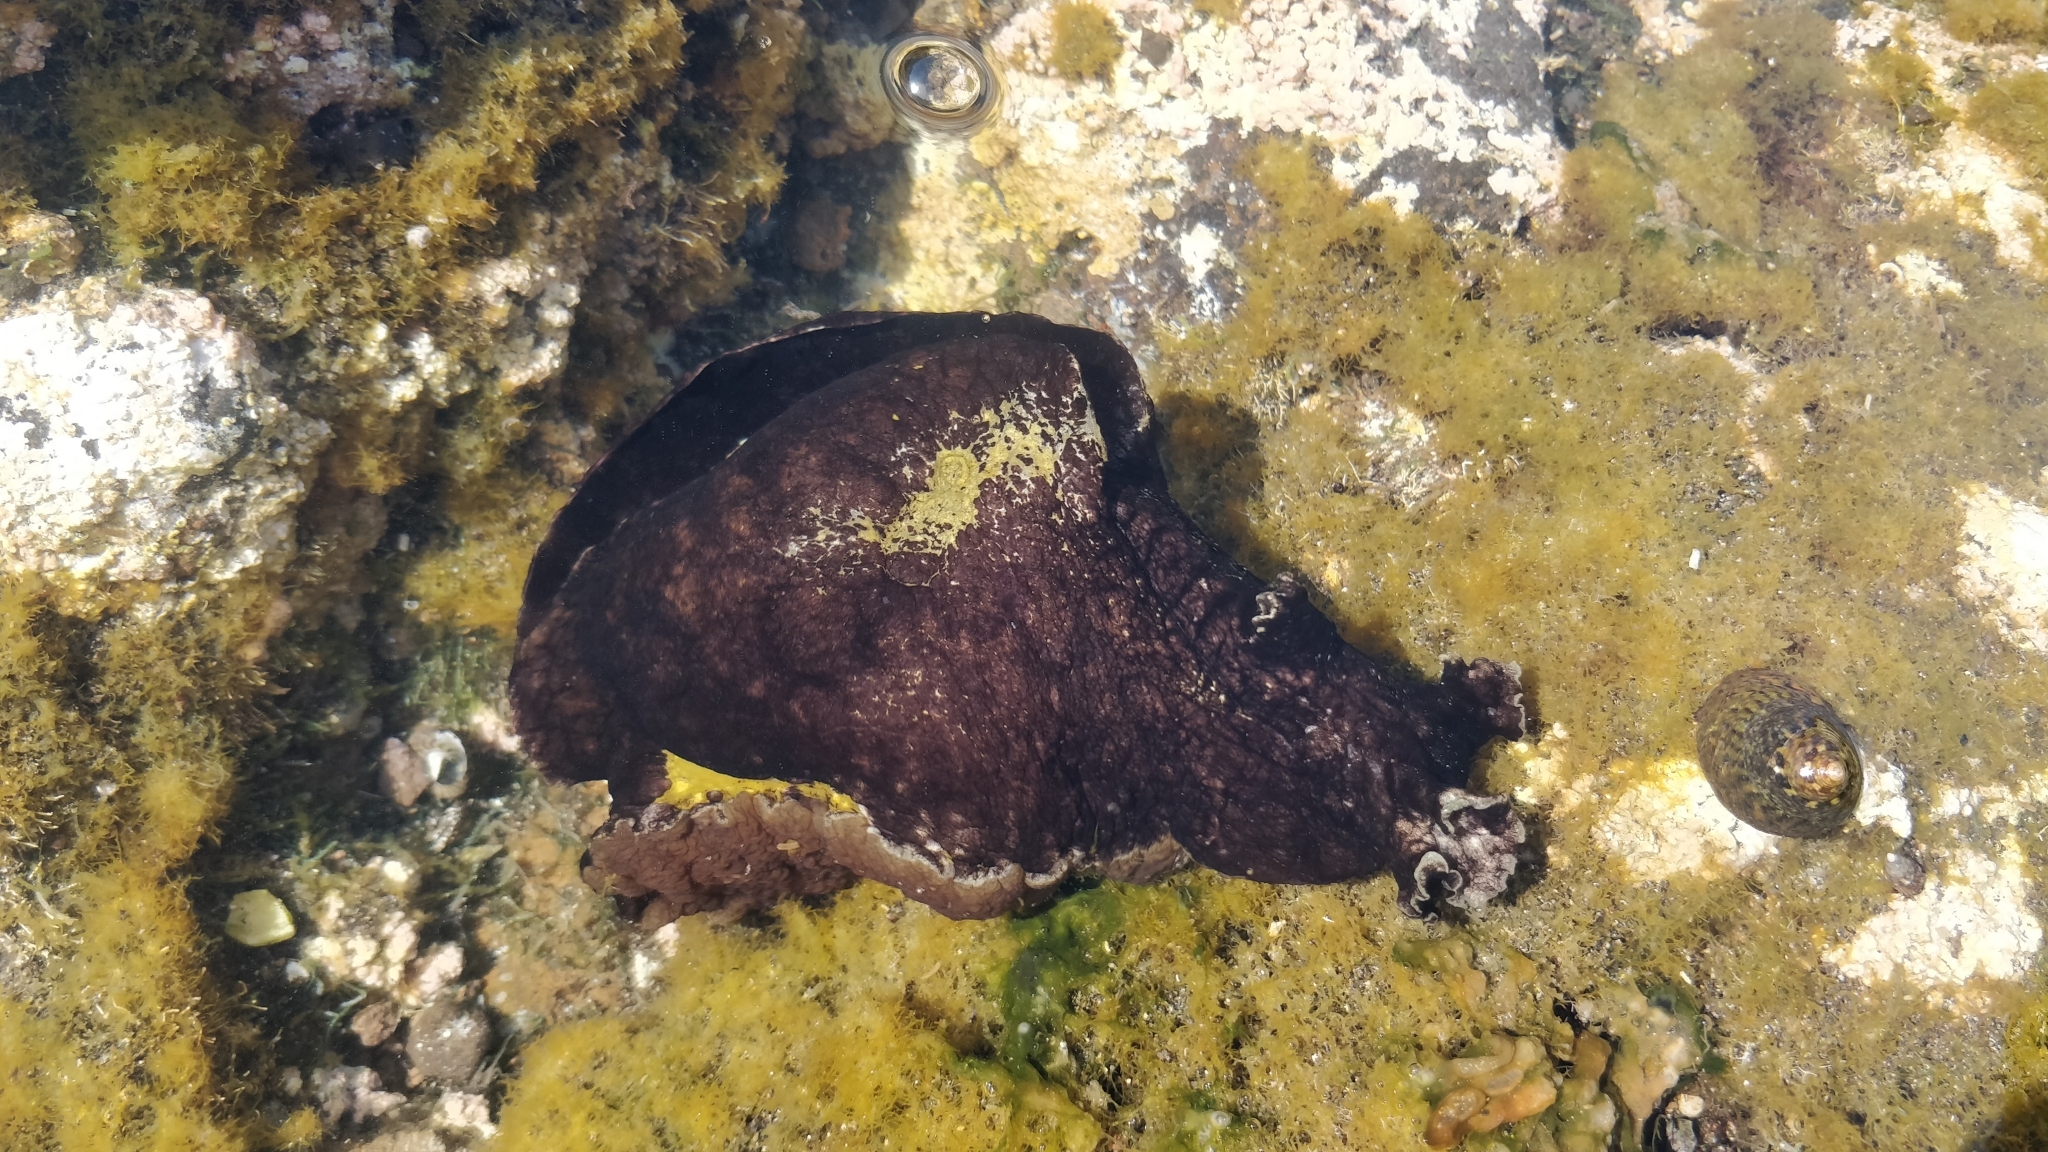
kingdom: Animalia
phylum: Mollusca
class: Gastropoda
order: Aplysiida
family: Aplysiidae
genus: Aplysia
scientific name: Aplysia fasciata
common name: Banded sea hare
